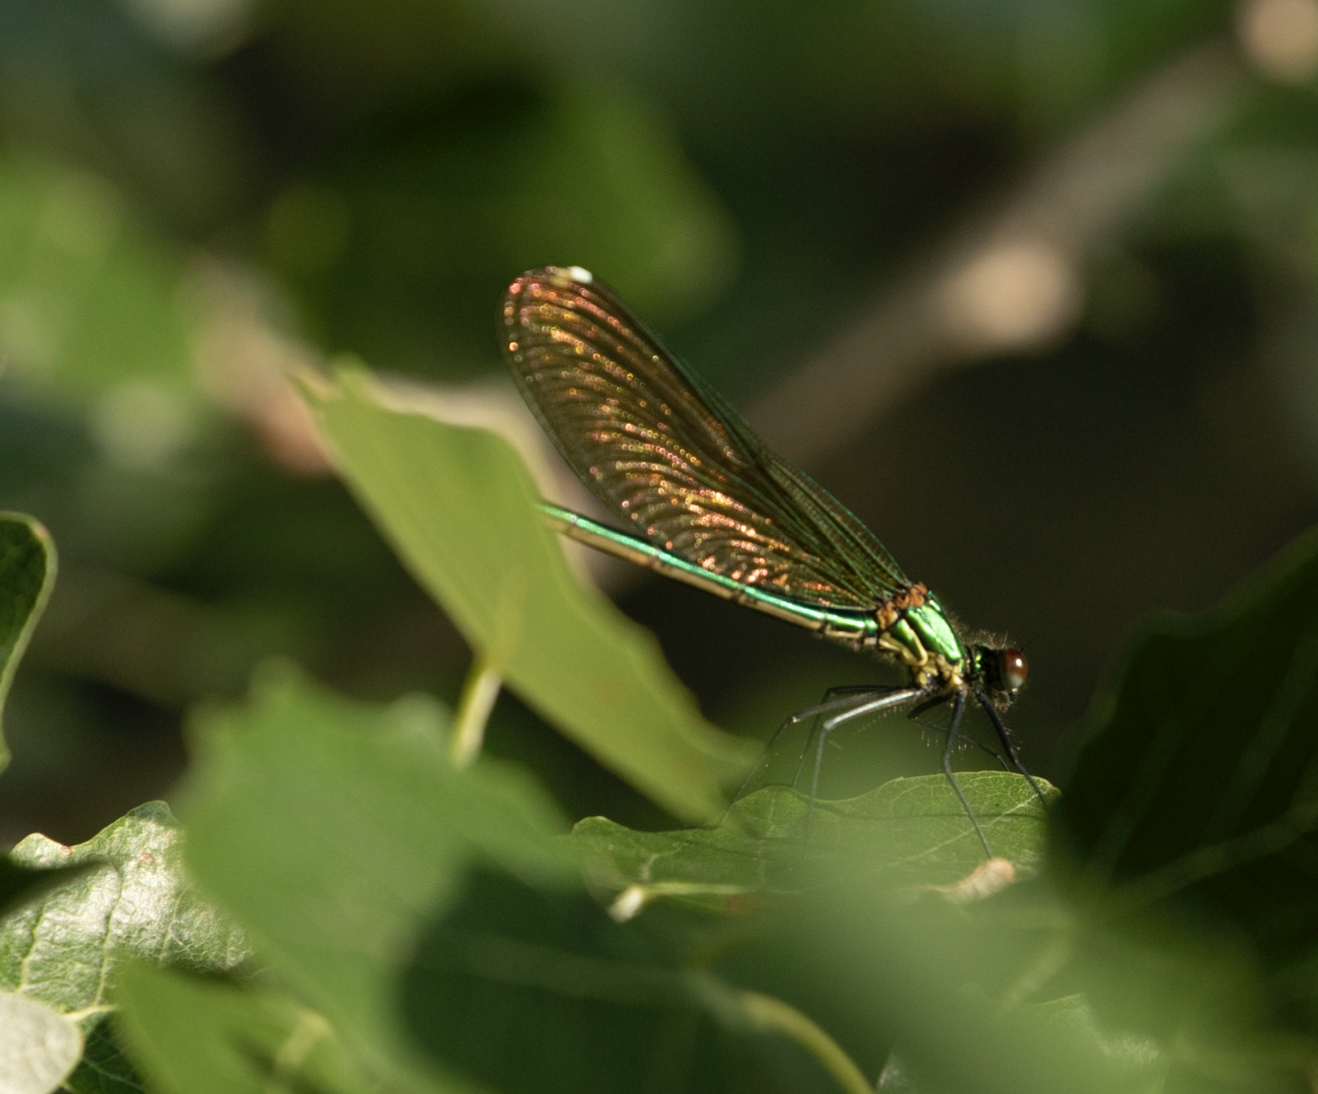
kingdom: Animalia
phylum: Arthropoda
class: Insecta
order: Odonata
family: Calopterygidae
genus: Calopteryx
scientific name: Calopteryx splendens
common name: Banded demoiselle
